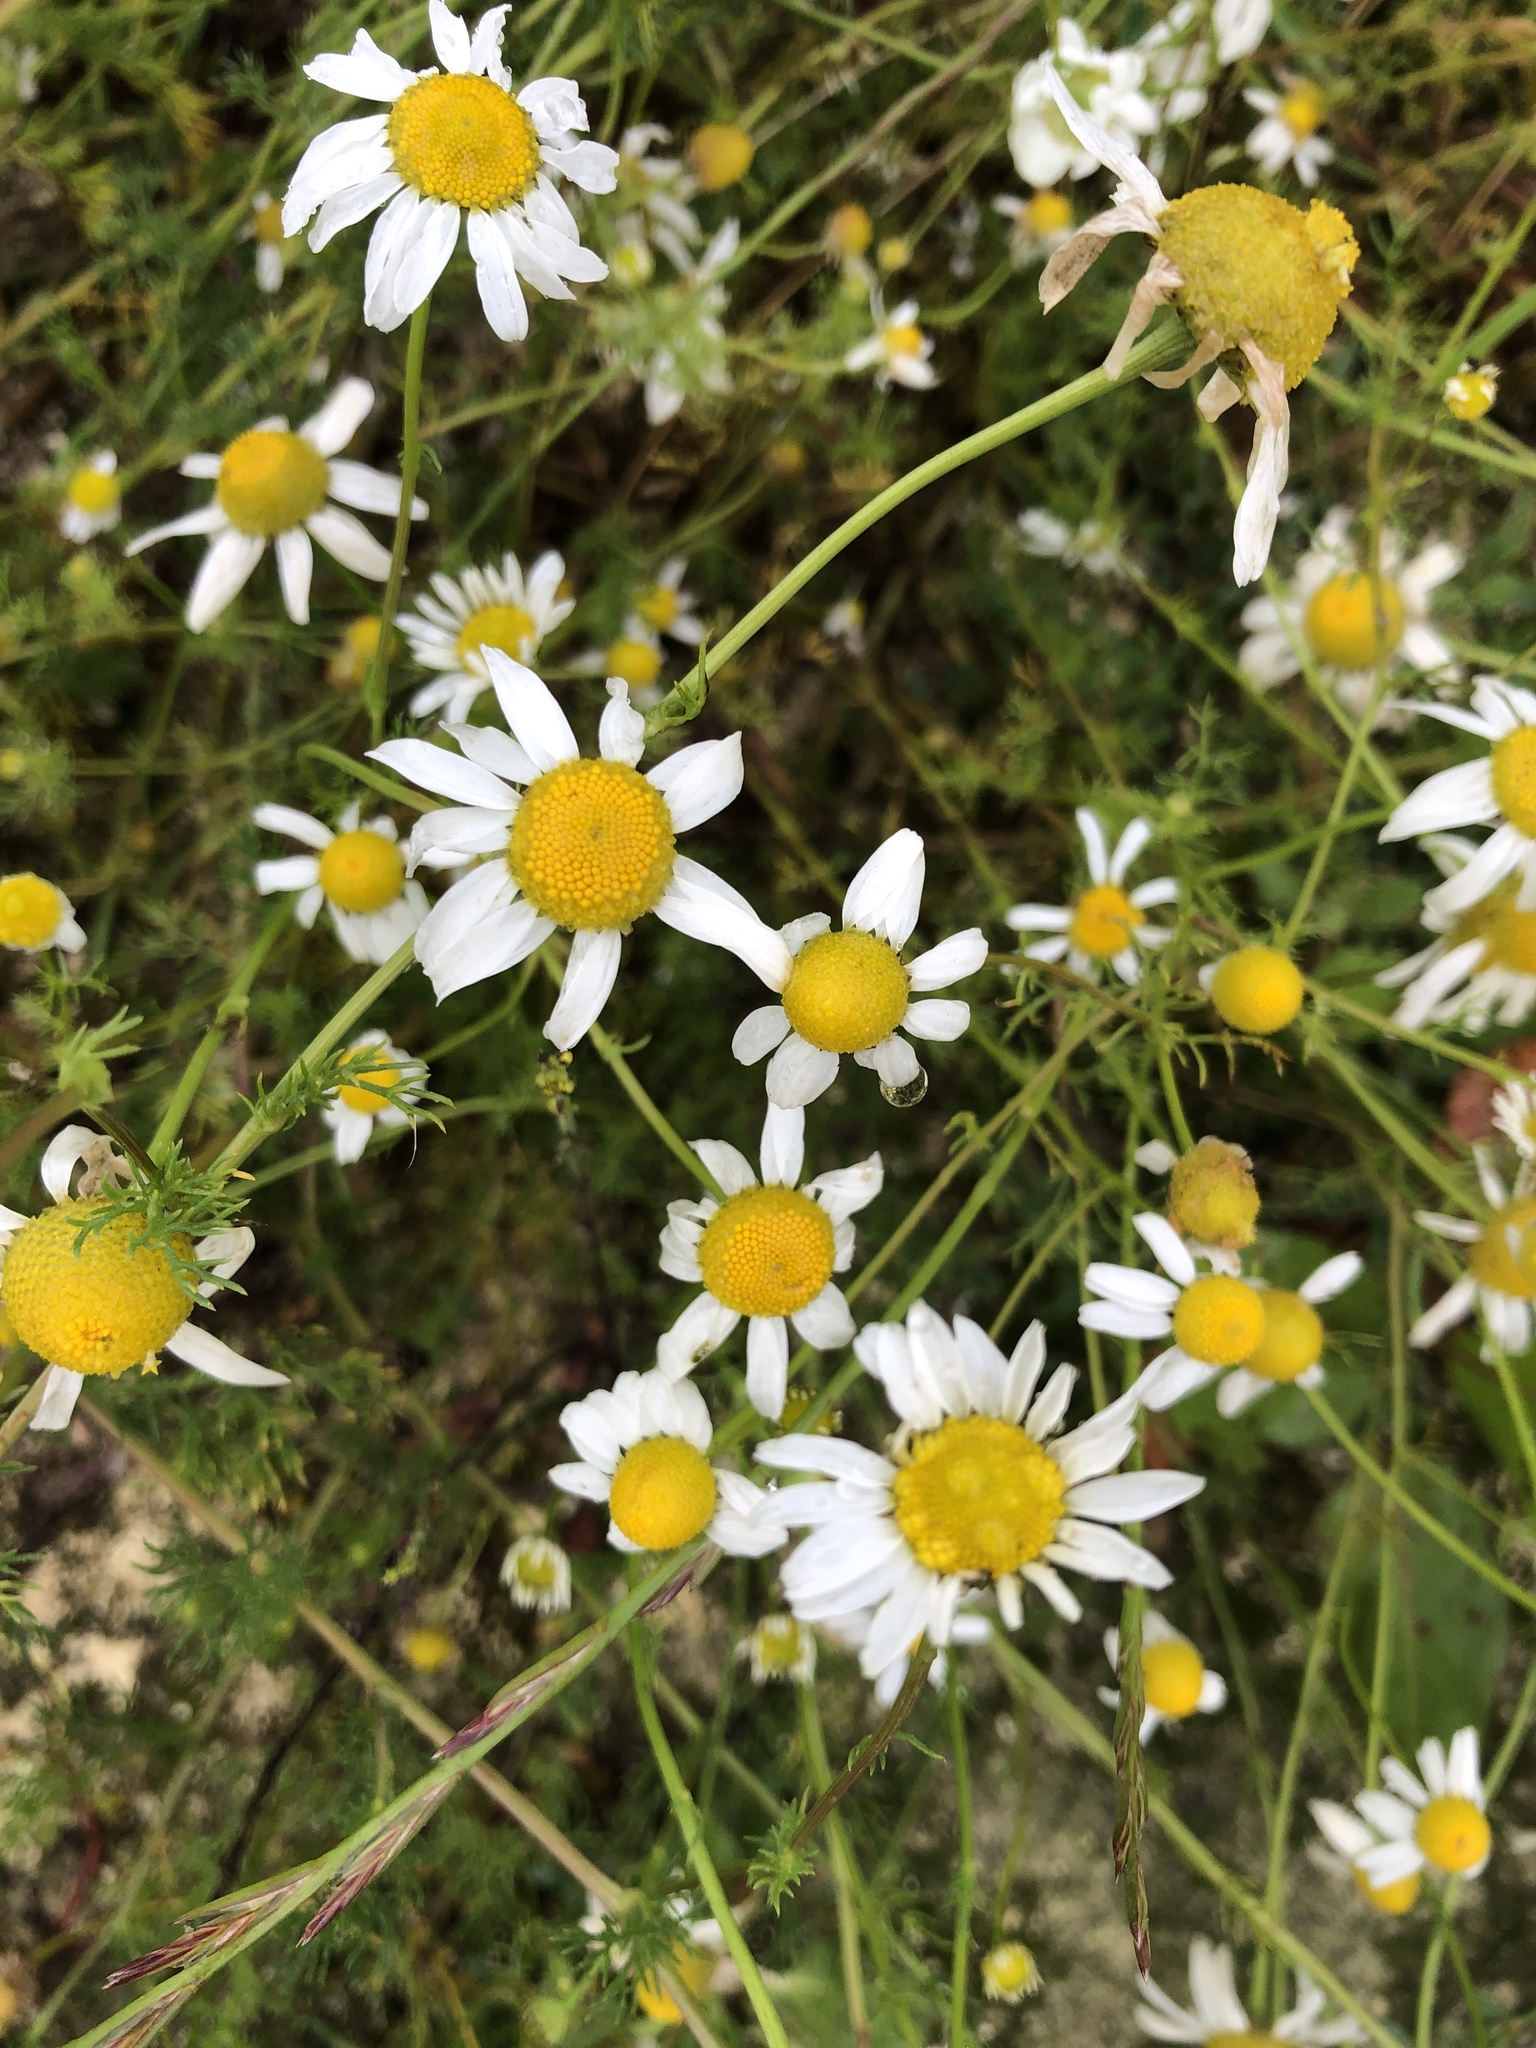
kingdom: Plantae
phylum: Tracheophyta
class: Magnoliopsida
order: Asterales
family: Asteraceae
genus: Tripleurospermum
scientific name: Tripleurospermum inodorum
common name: Scentless mayweed
